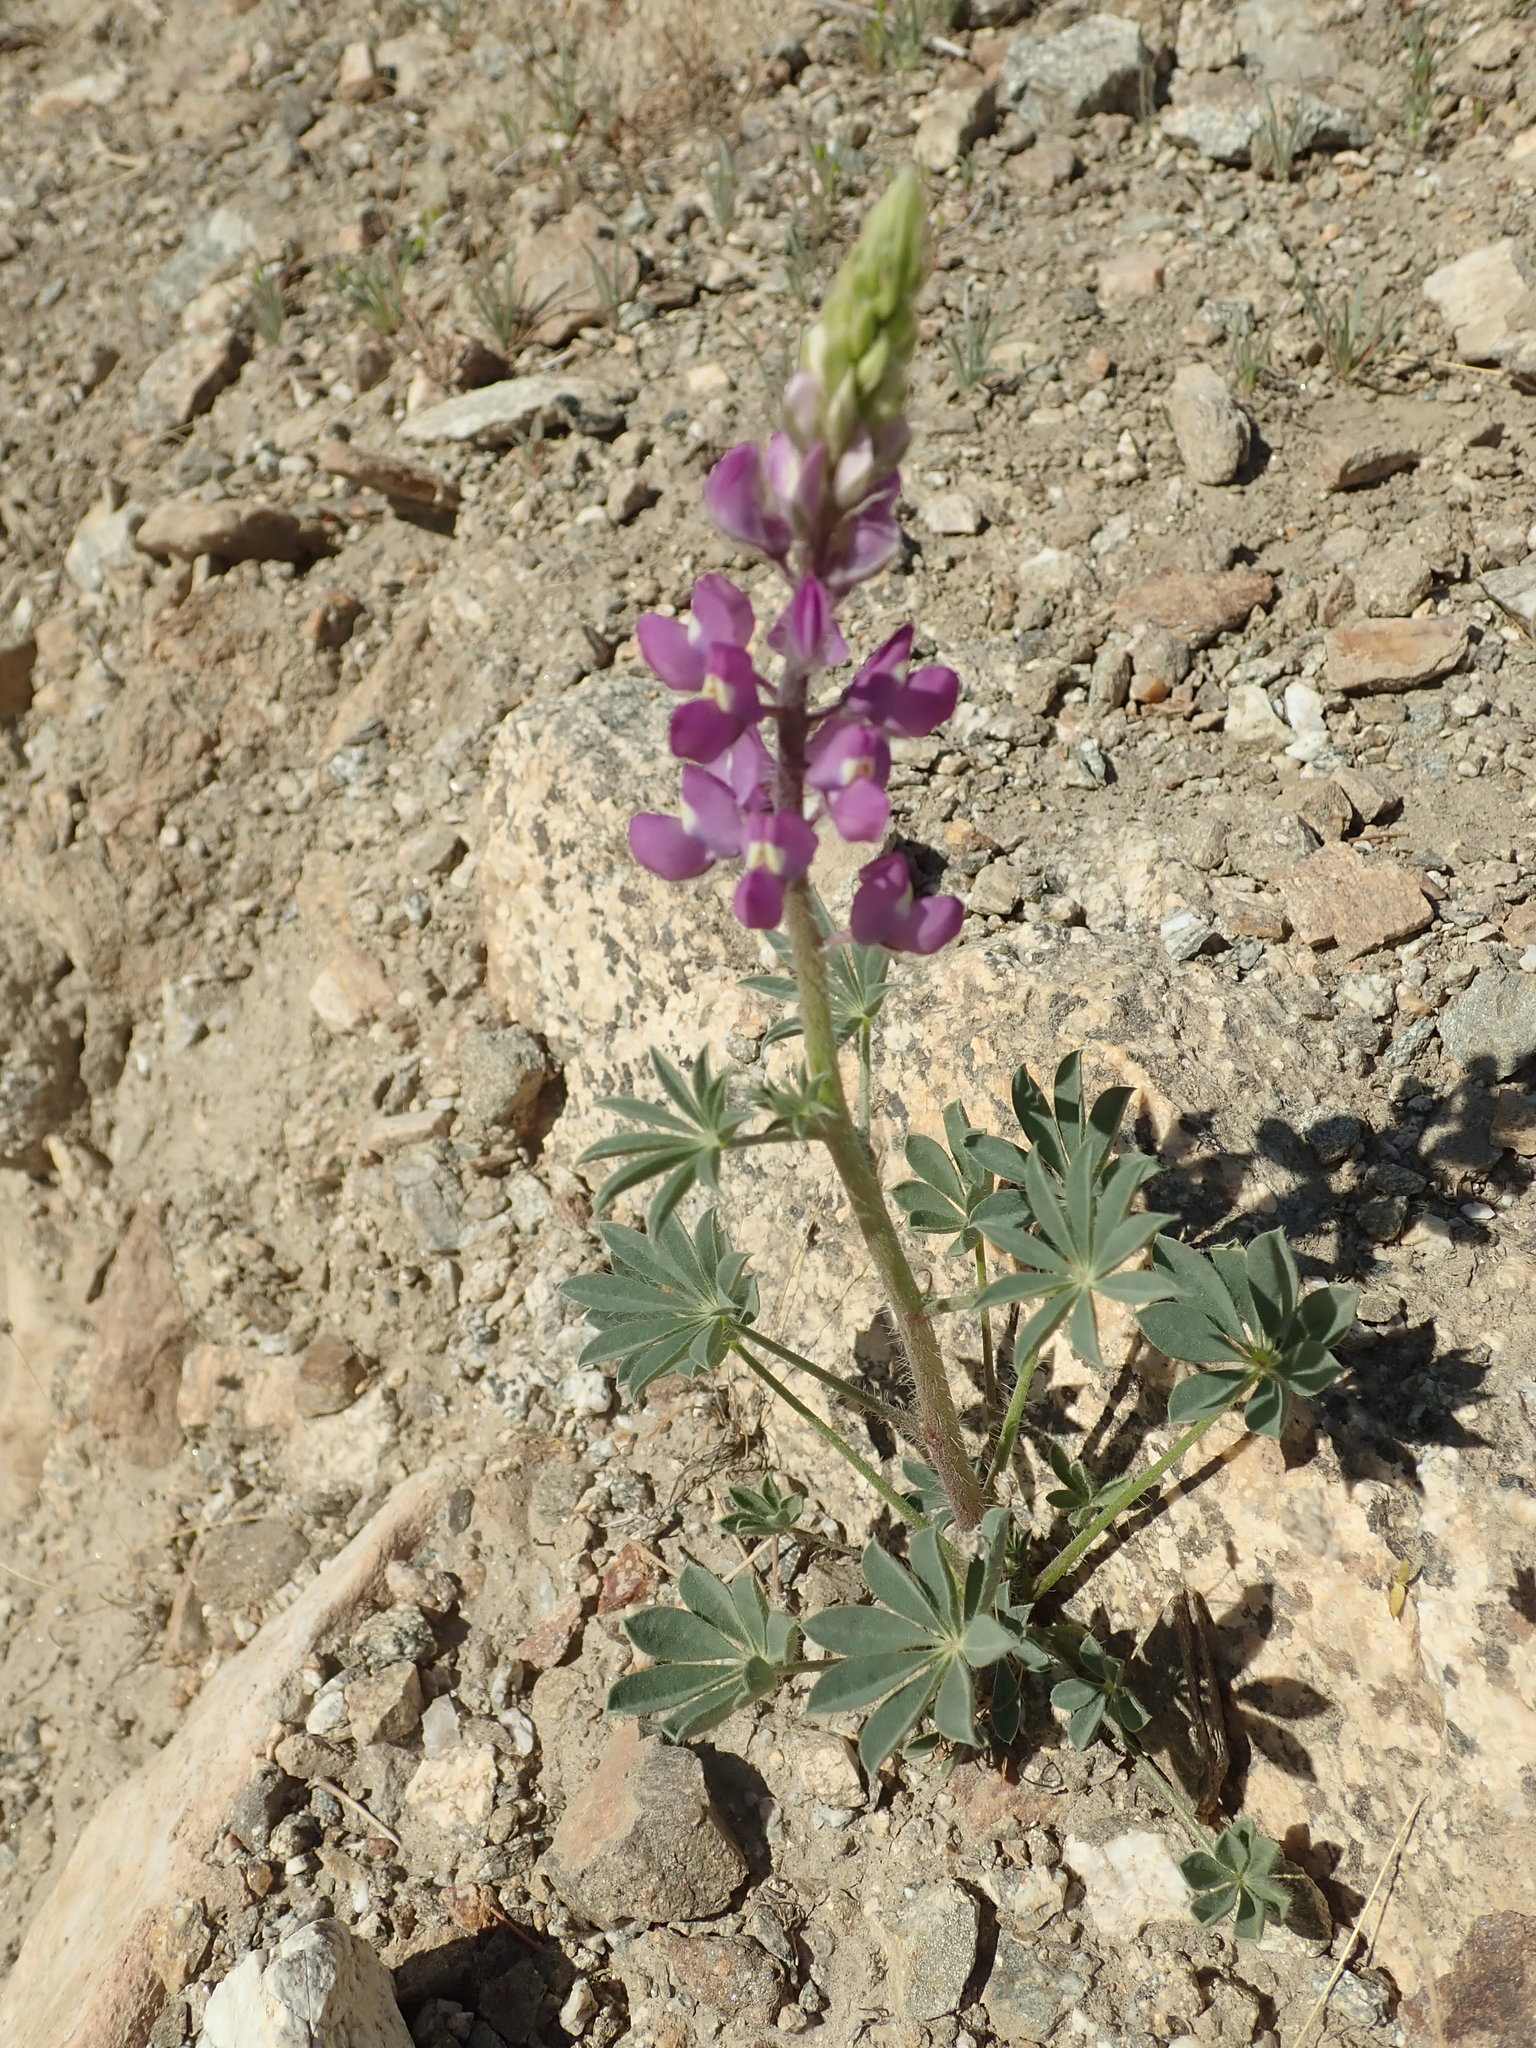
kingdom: Plantae
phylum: Tracheophyta
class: Magnoliopsida
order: Fabales
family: Fabaceae
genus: Lupinus
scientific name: Lupinus arizonicus
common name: Arizona lupine
